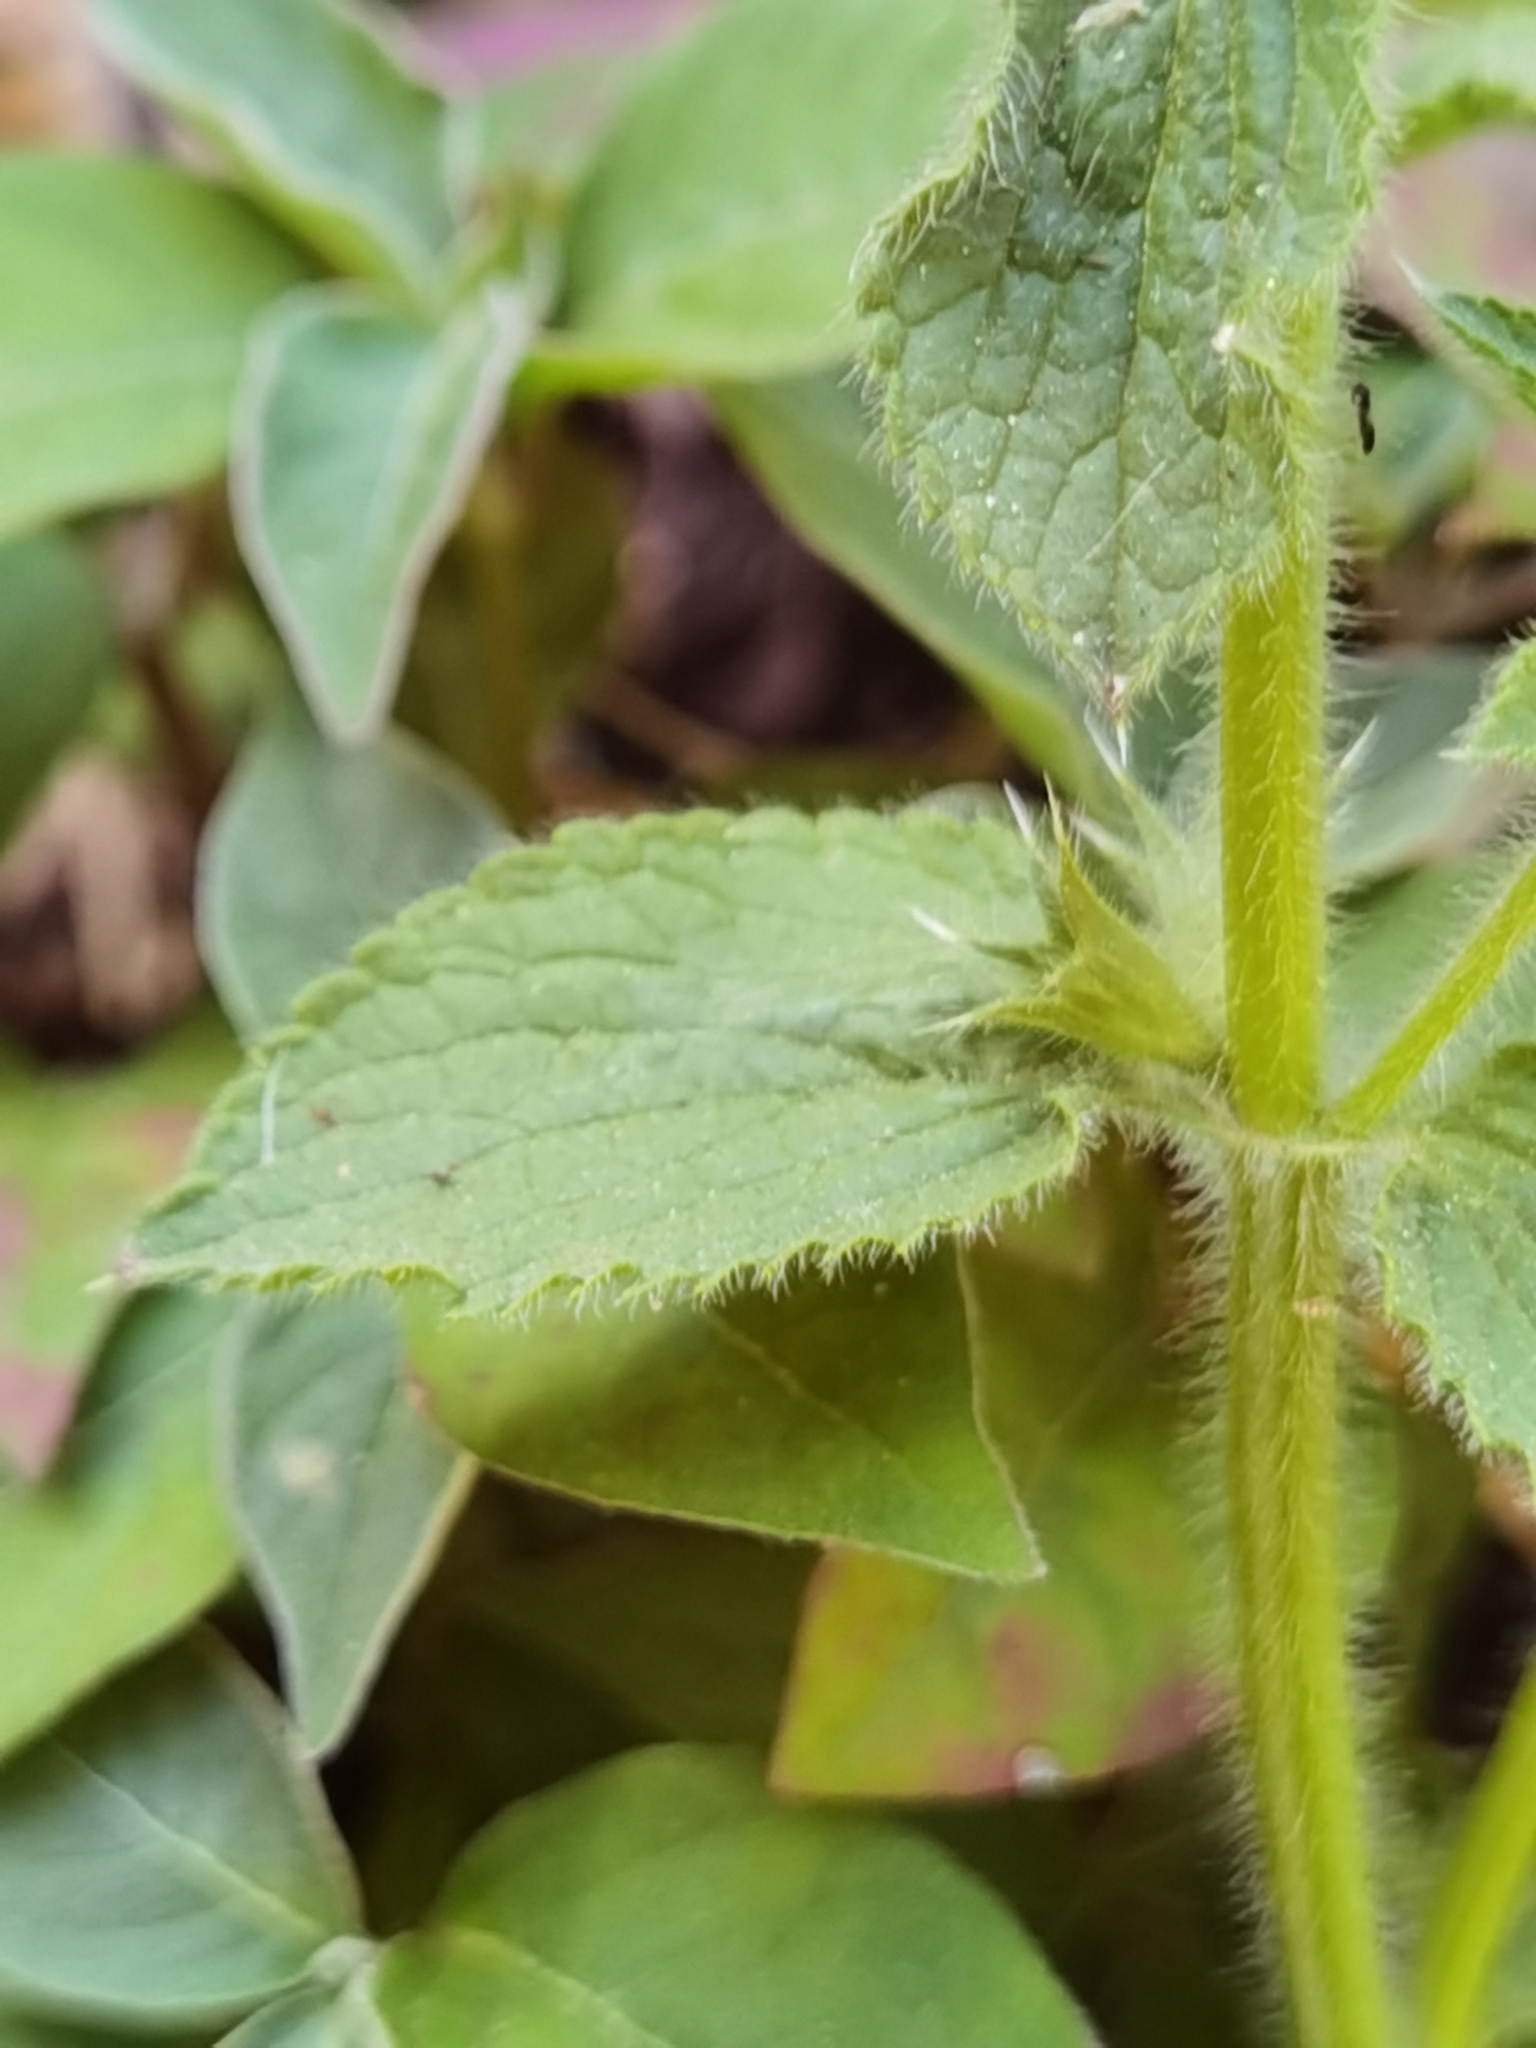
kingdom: Plantae
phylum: Tracheophyta
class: Magnoliopsida
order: Lamiales
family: Lamiaceae
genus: Stachys
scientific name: Stachys ocymastrum
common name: Italian hedgenettle
